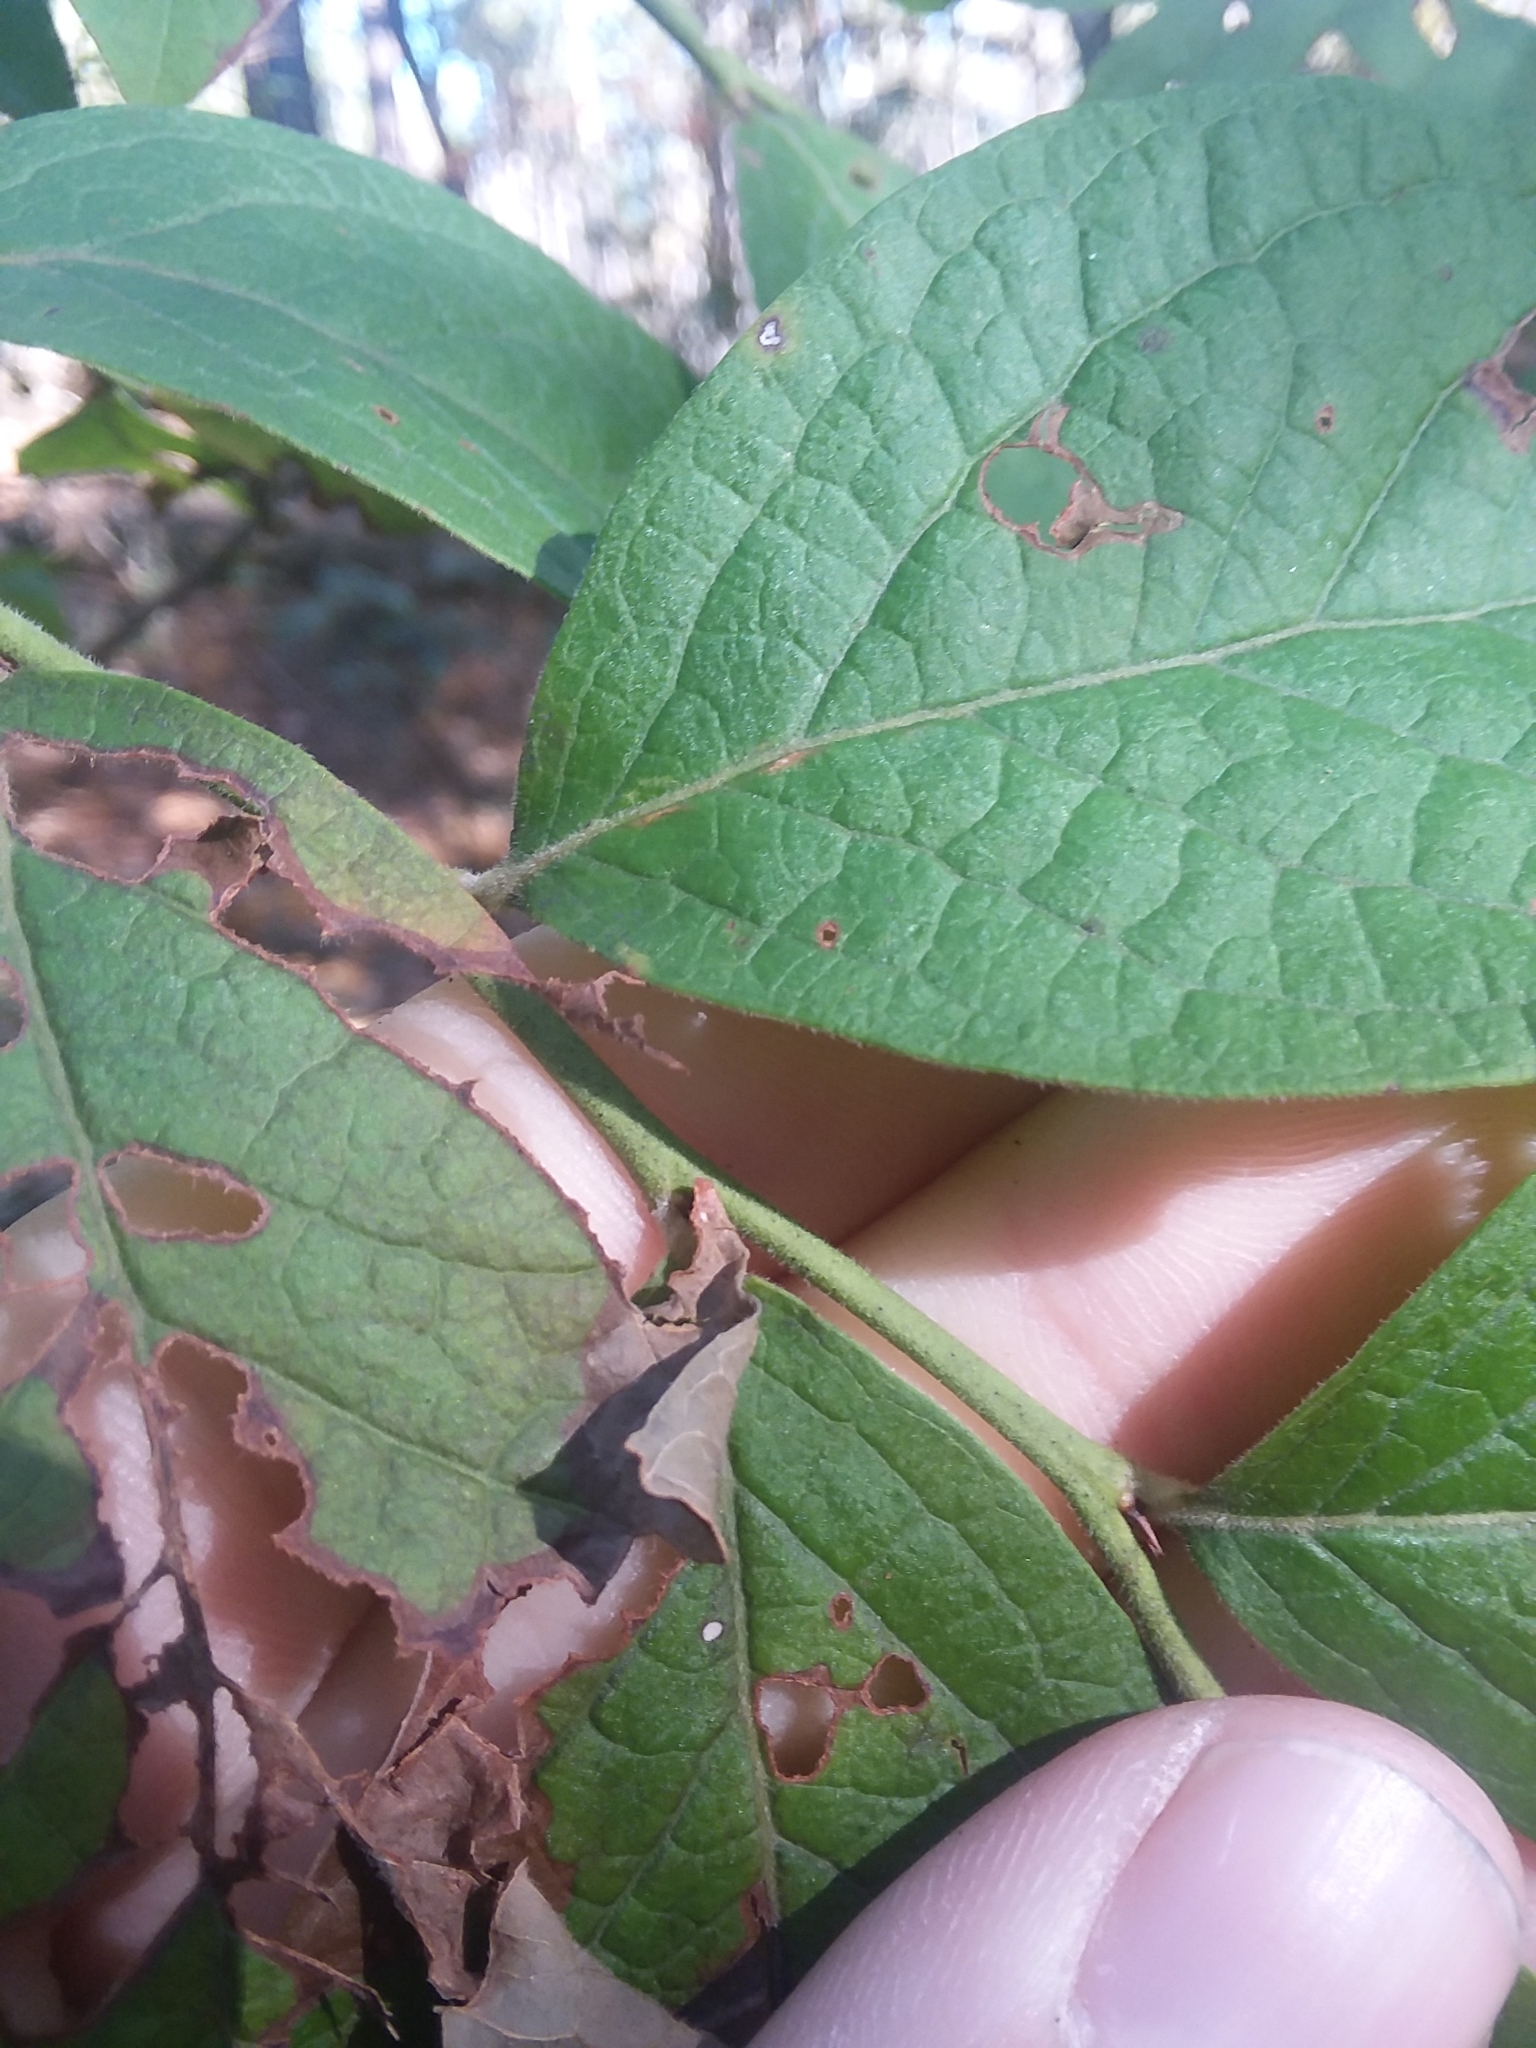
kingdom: Plantae
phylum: Tracheophyta
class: Magnoliopsida
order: Ericales
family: Ericaceae
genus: Vaccinium
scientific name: Vaccinium corymbosum
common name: Blueberry
